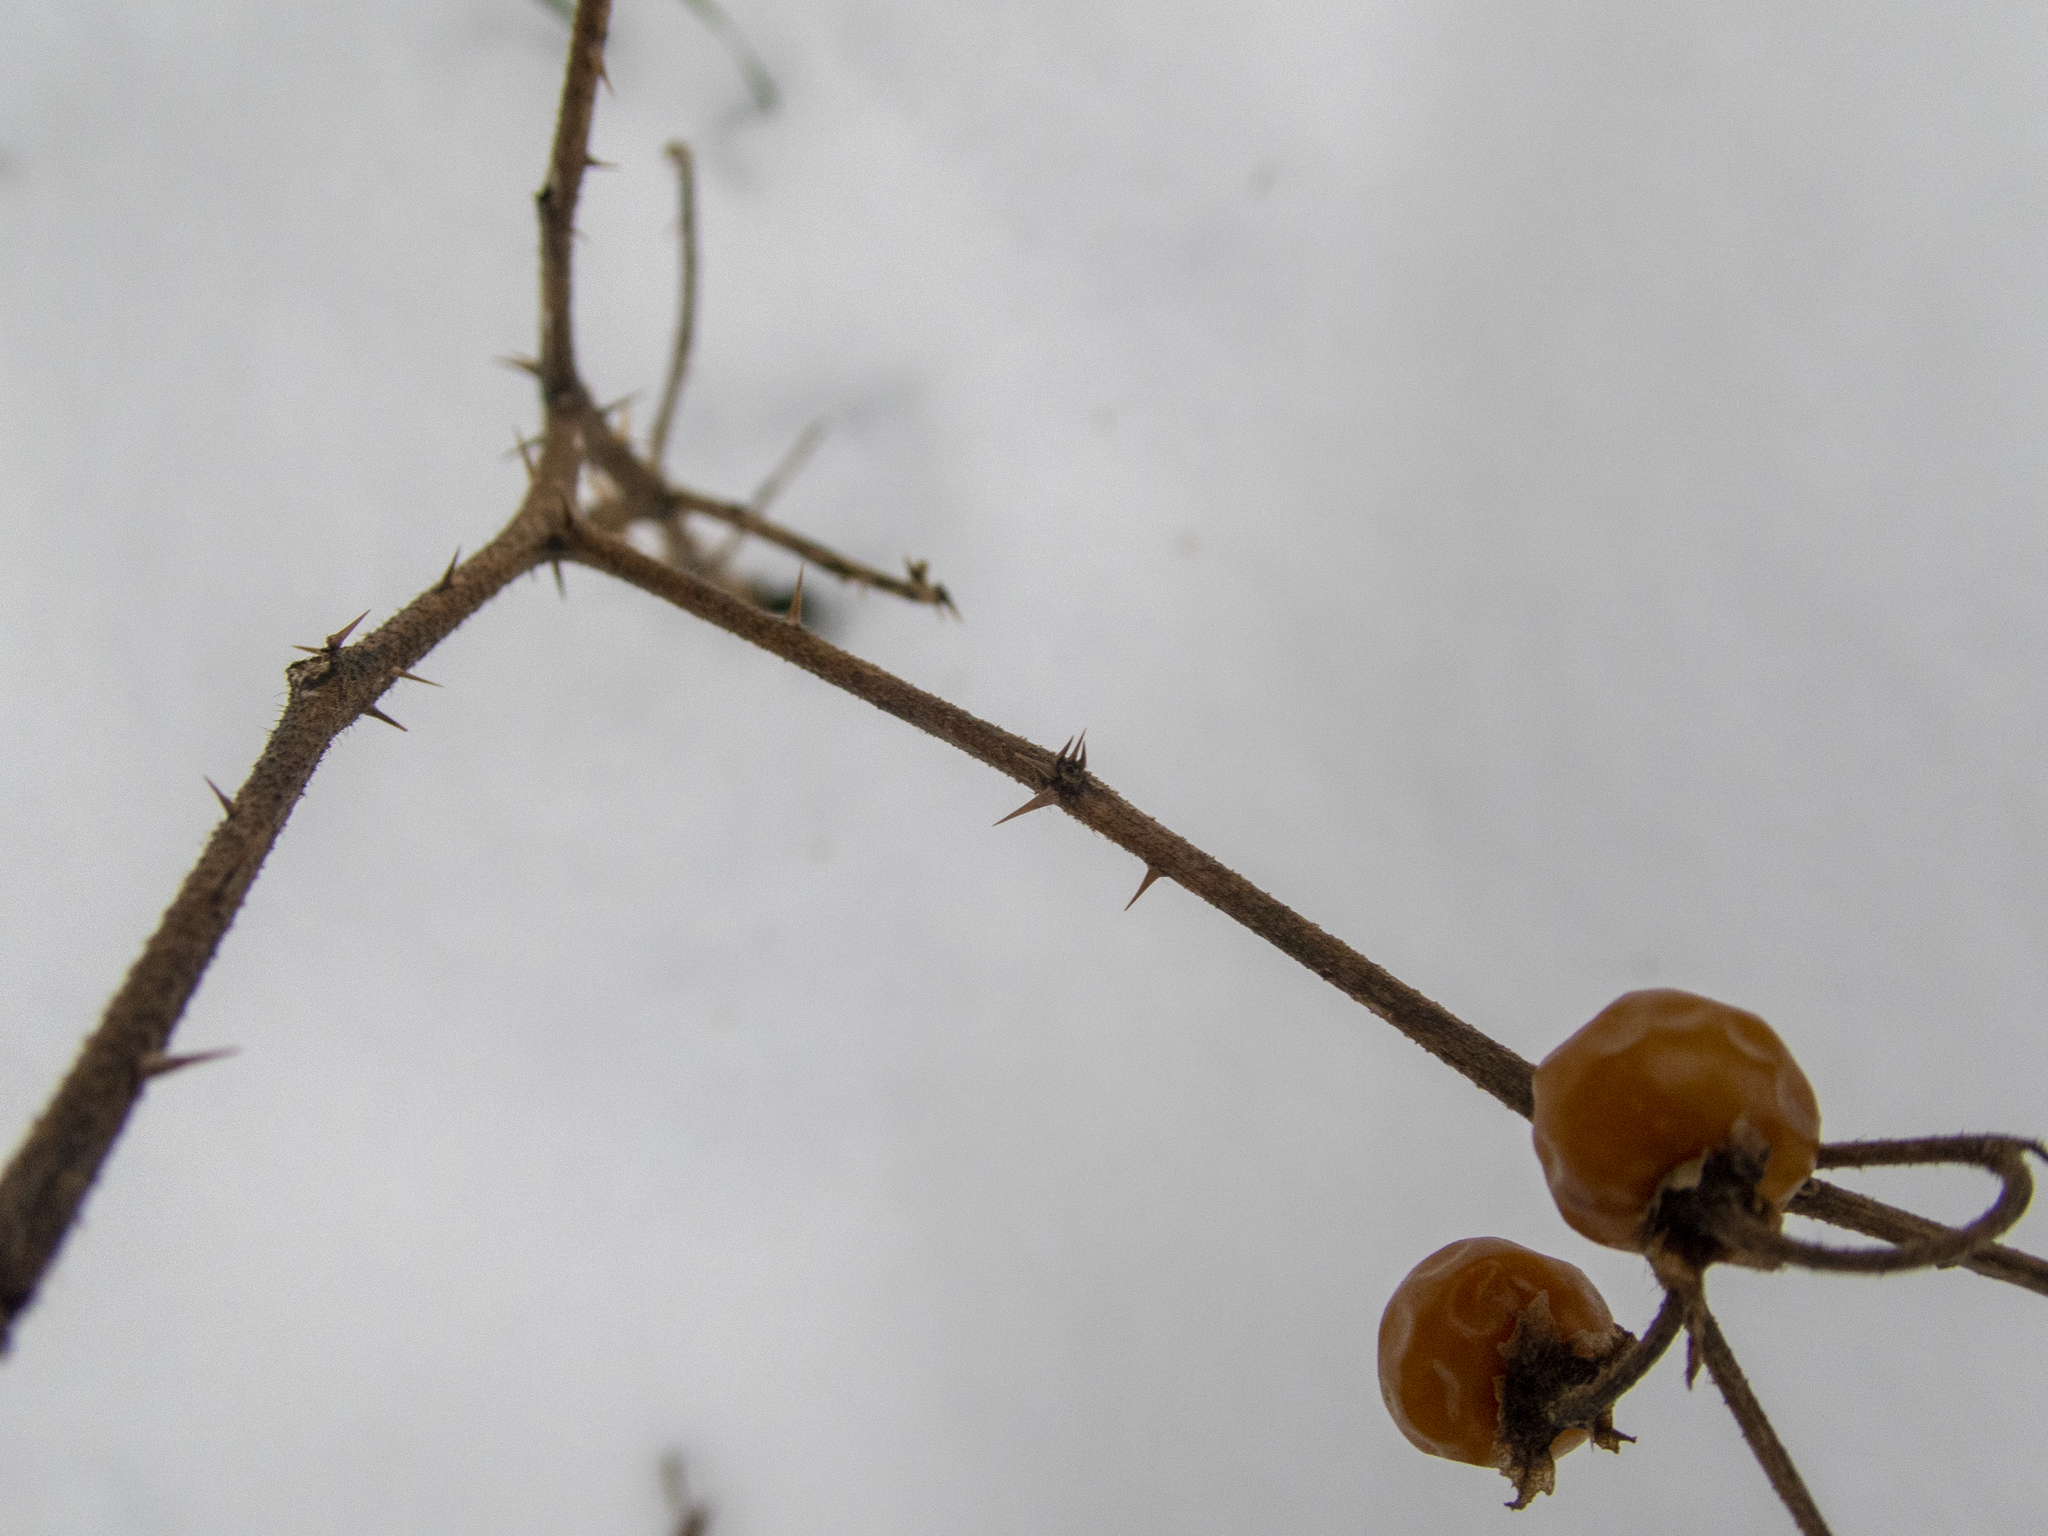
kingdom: Plantae
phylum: Tracheophyta
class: Magnoliopsida
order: Solanales
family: Solanaceae
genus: Solanum
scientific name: Solanum carolinense
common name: Horse-nettle
